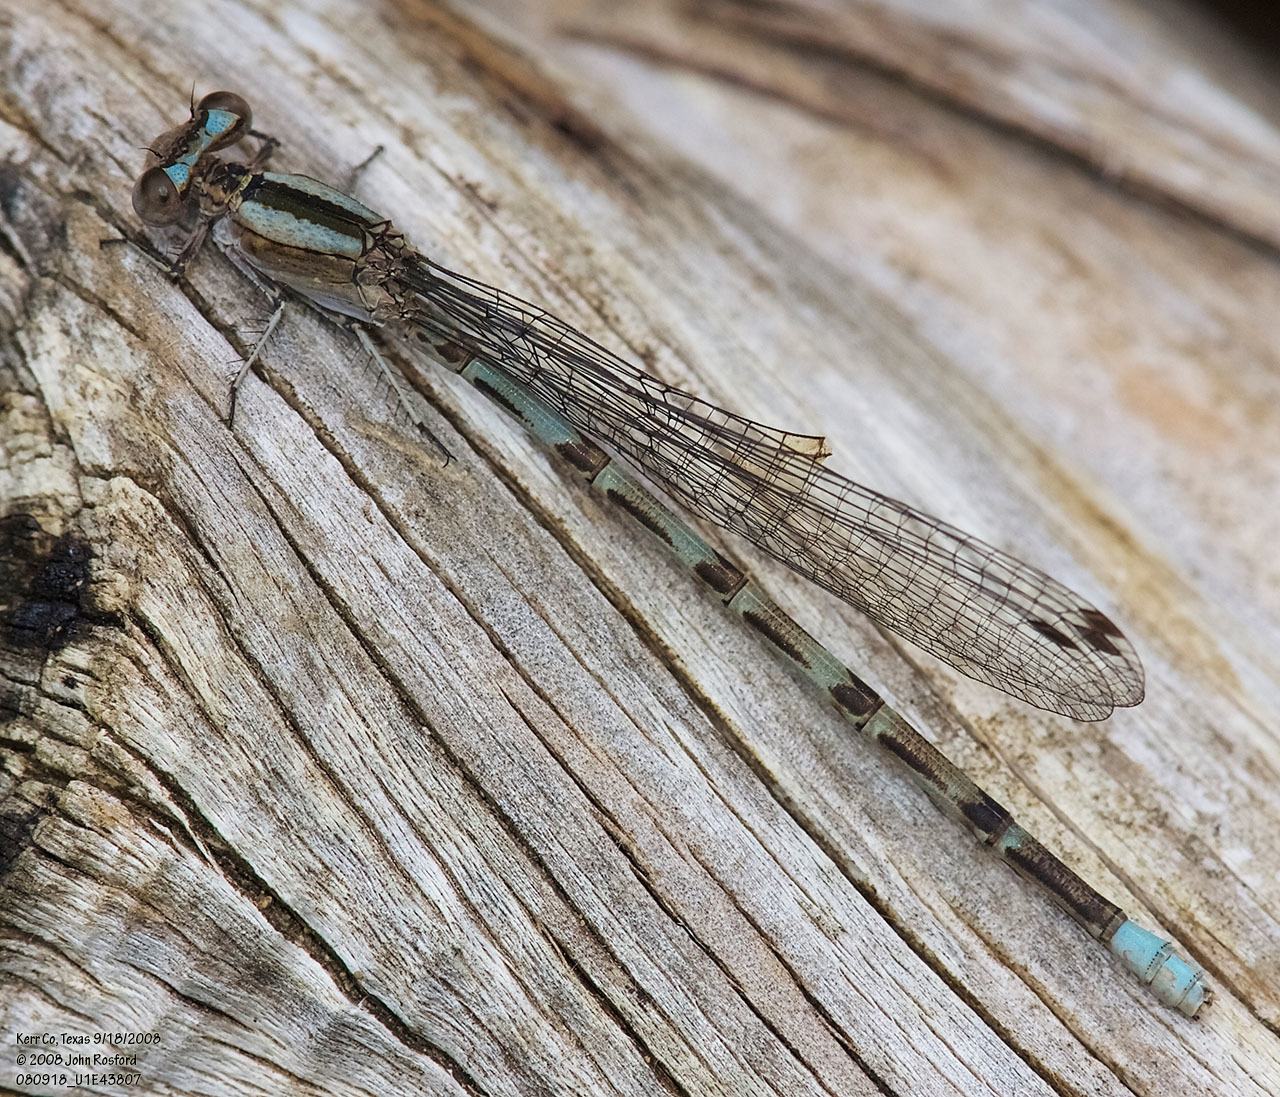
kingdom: Animalia
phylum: Arthropoda
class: Insecta
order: Odonata
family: Coenagrionidae
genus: Argia
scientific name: Argia immunda
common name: Kiowa dancer
